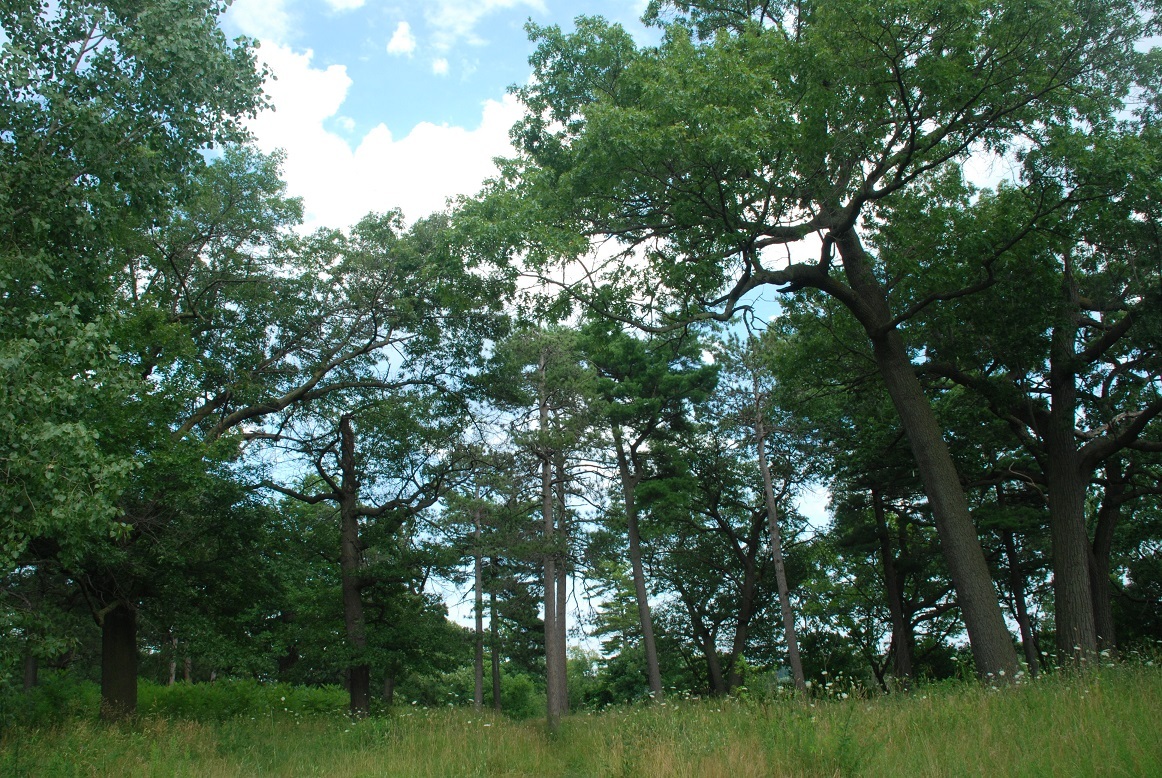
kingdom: Plantae
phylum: Tracheophyta
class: Pinopsida
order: Pinales
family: Pinaceae
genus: Pinus
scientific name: Pinus resinosa
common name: Norway pine
